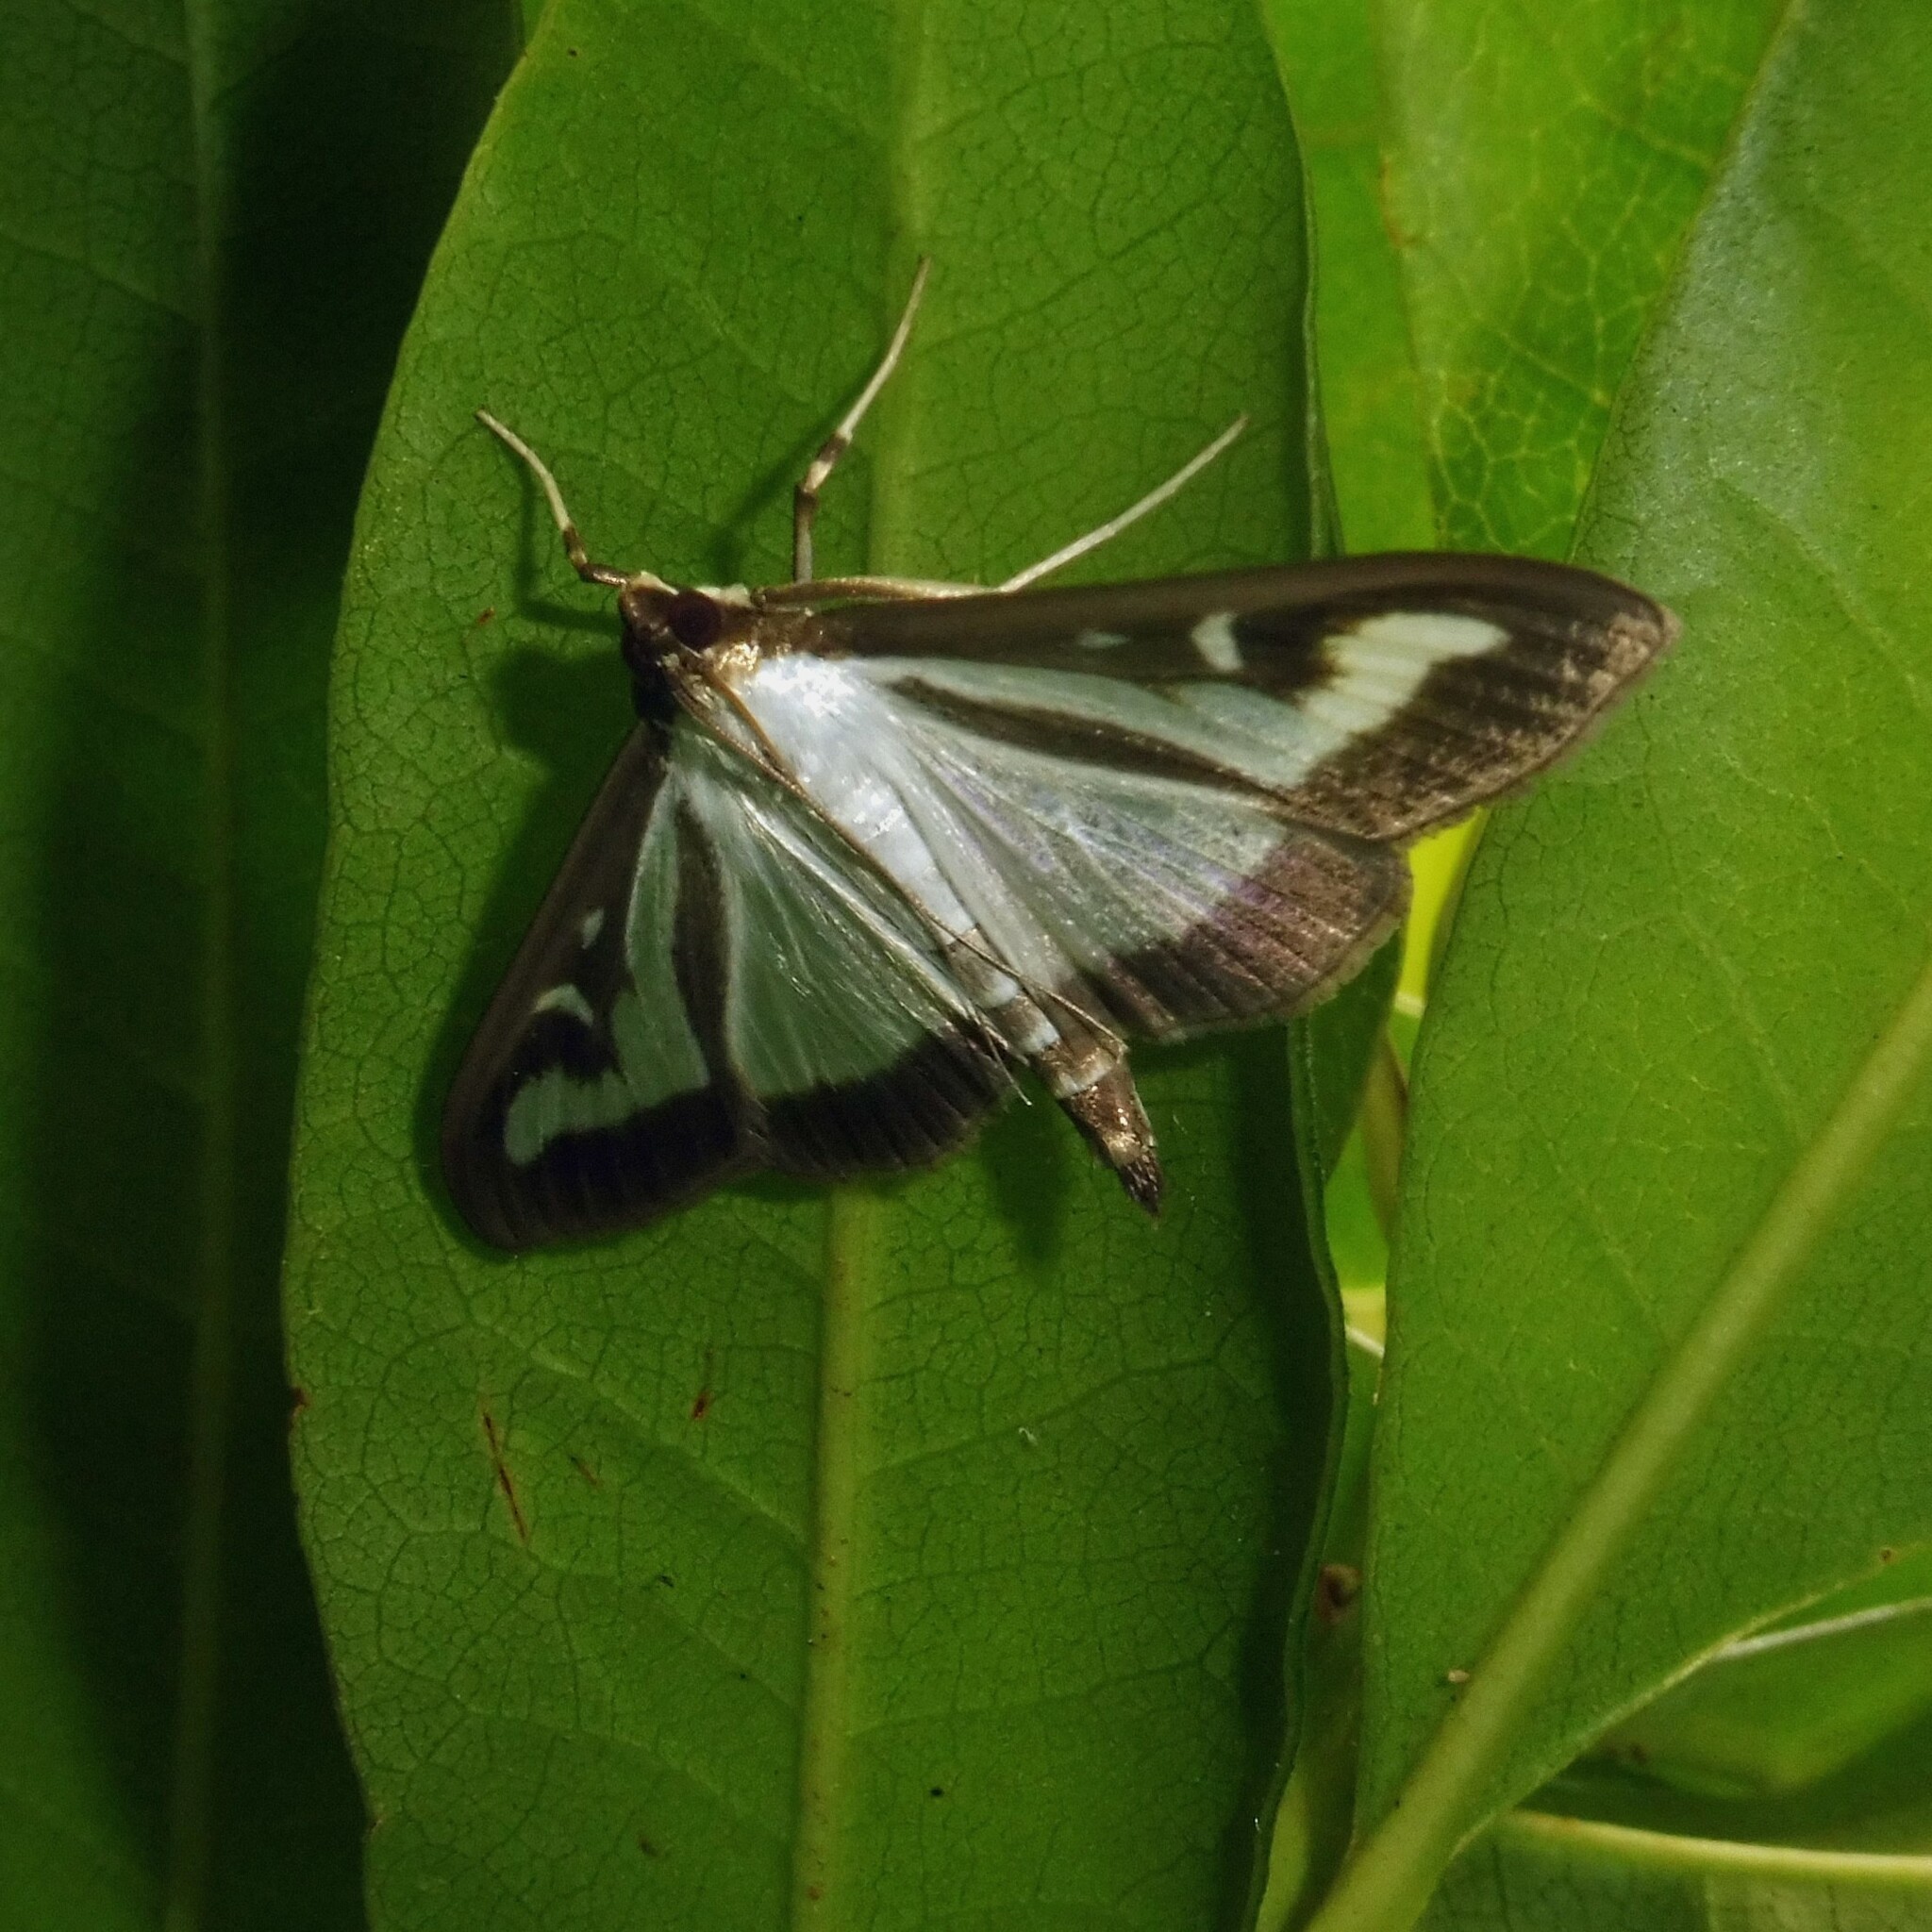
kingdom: Animalia
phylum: Arthropoda
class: Insecta
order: Lepidoptera
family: Crambidae
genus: Cydalima
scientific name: Cydalima perspectalis
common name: Box tree moth
